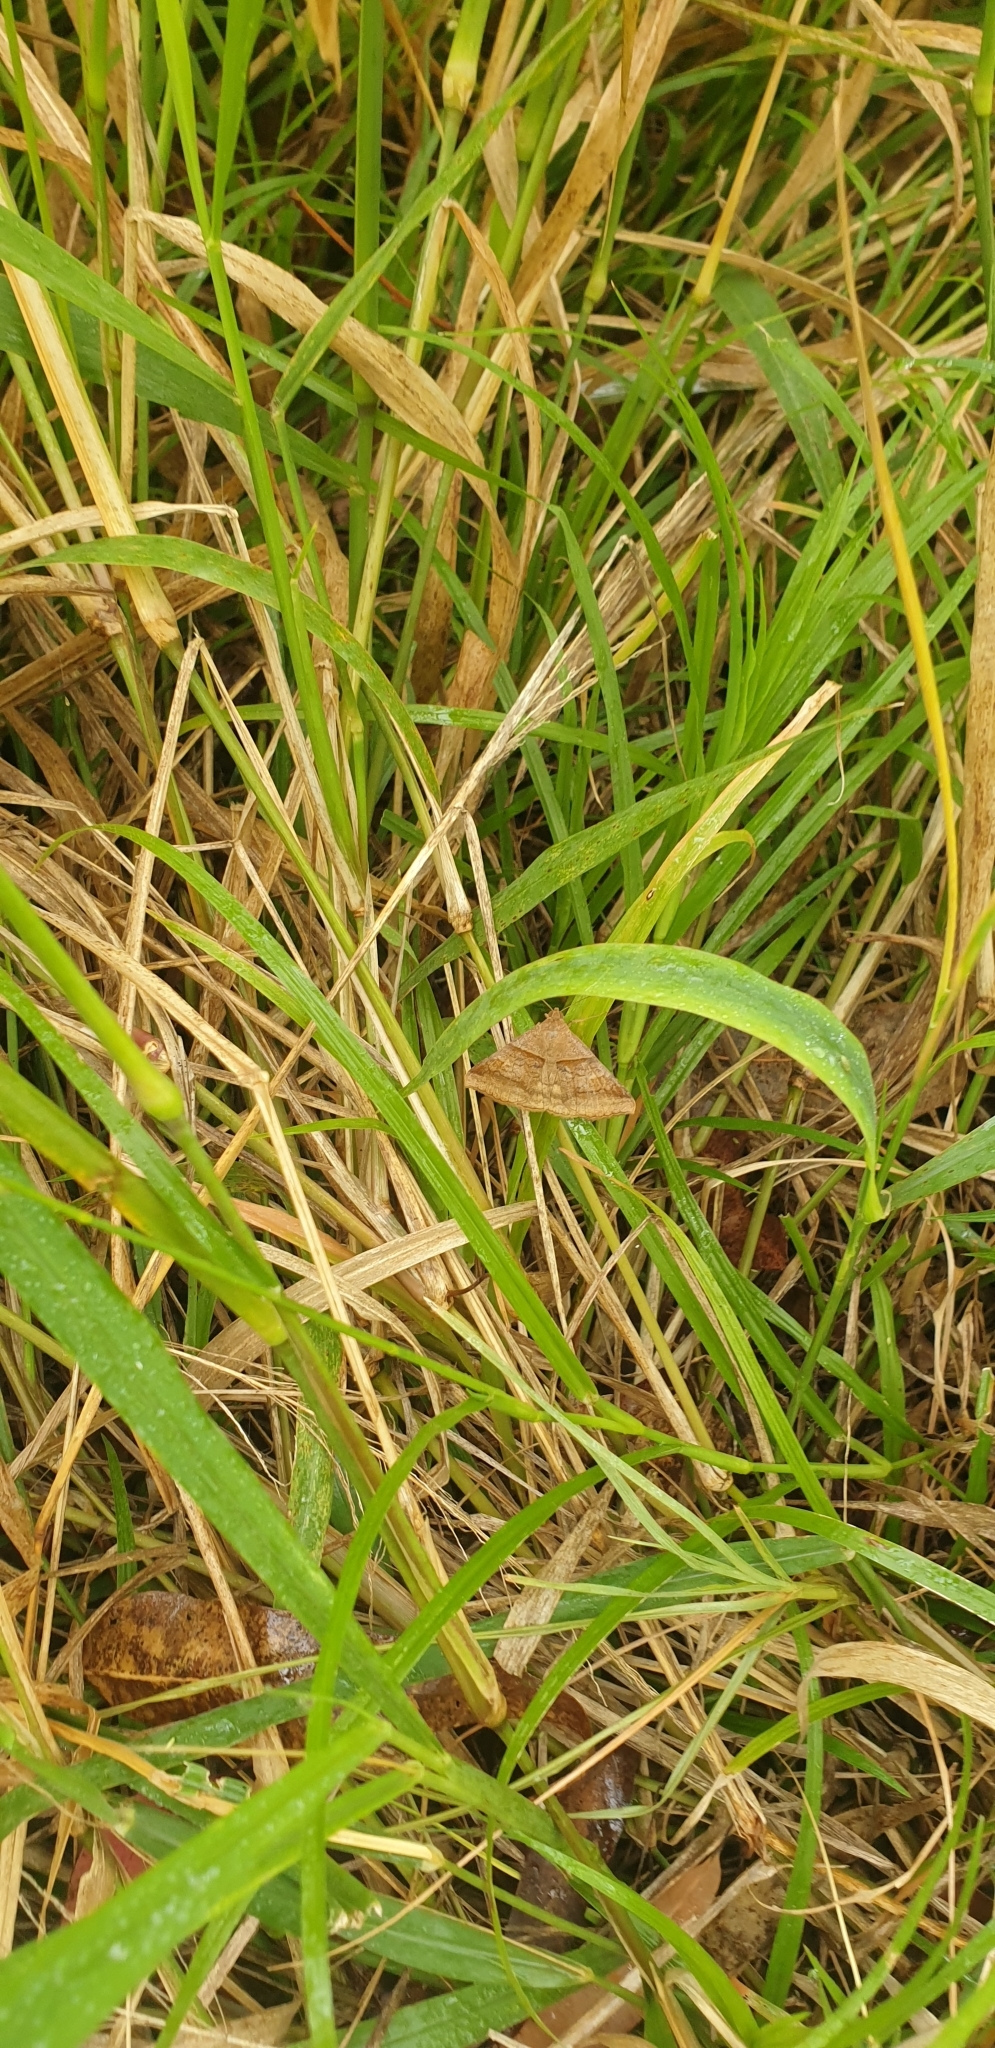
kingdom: Animalia
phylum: Arthropoda
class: Insecta
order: Lepidoptera
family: Erebidae
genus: Mocis
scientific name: Mocis trifasciata
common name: Triple-barred
